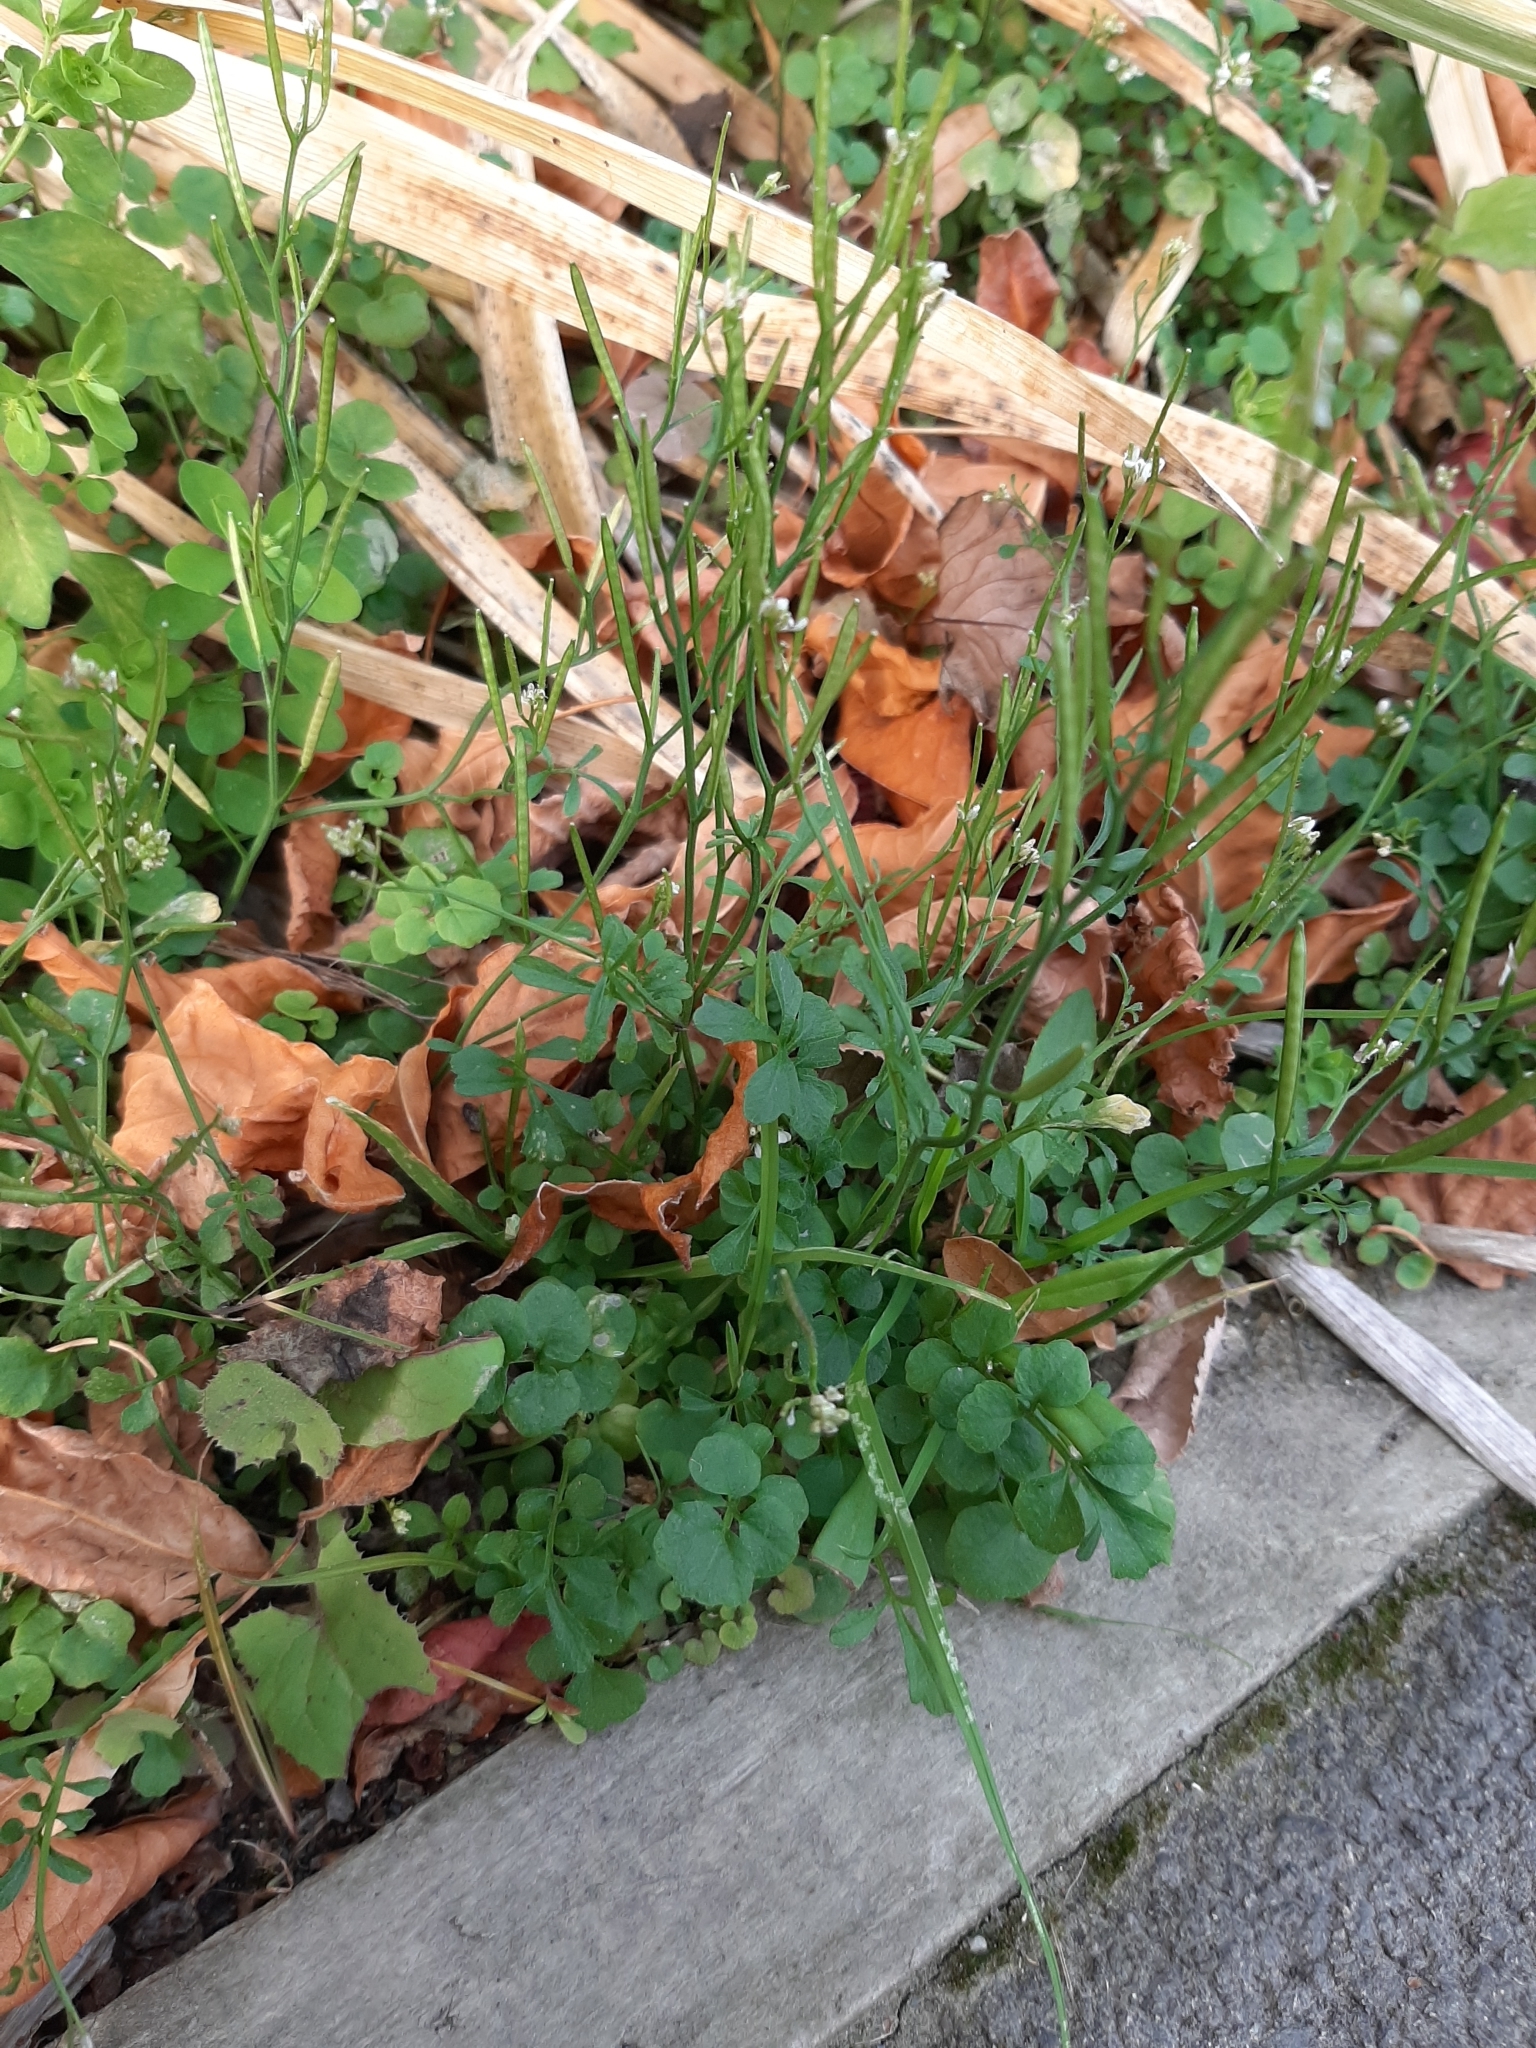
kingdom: Plantae
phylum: Tracheophyta
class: Magnoliopsida
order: Brassicales
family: Brassicaceae
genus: Cardamine
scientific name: Cardamine hirsuta
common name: Hairy bittercress
